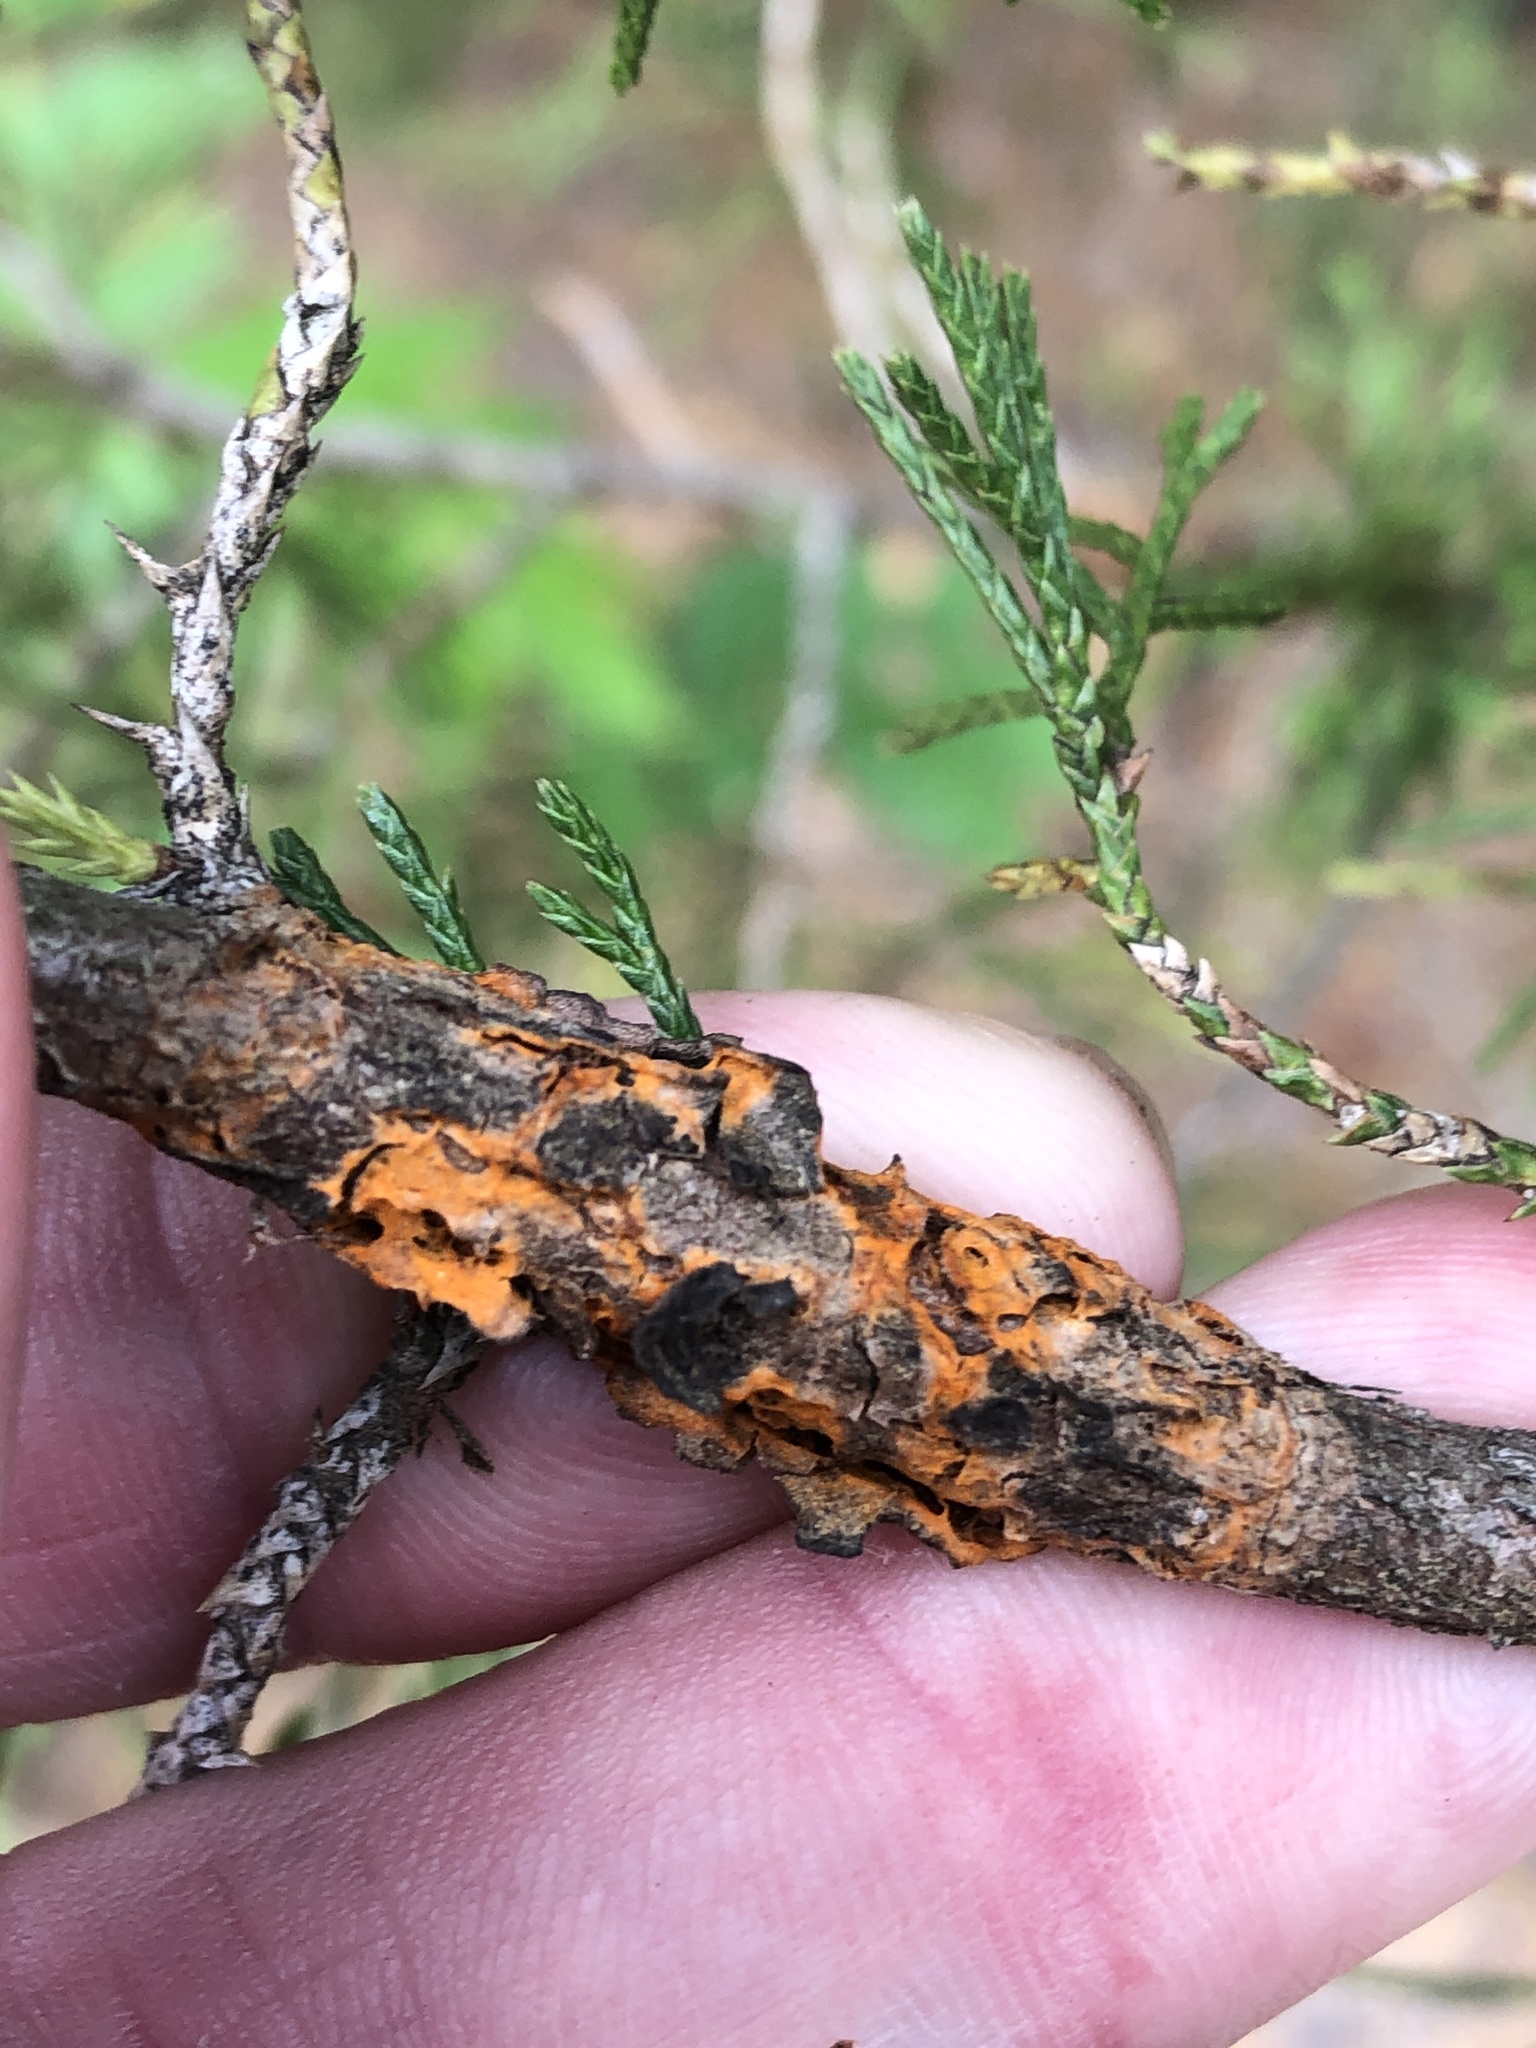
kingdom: Fungi
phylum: Basidiomycota
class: Pucciniomycetes
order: Pucciniales
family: Gymnosporangiaceae
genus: Gymnosporangium
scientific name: Gymnosporangium juniperi-virginianae
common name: Juniper-apple rust
